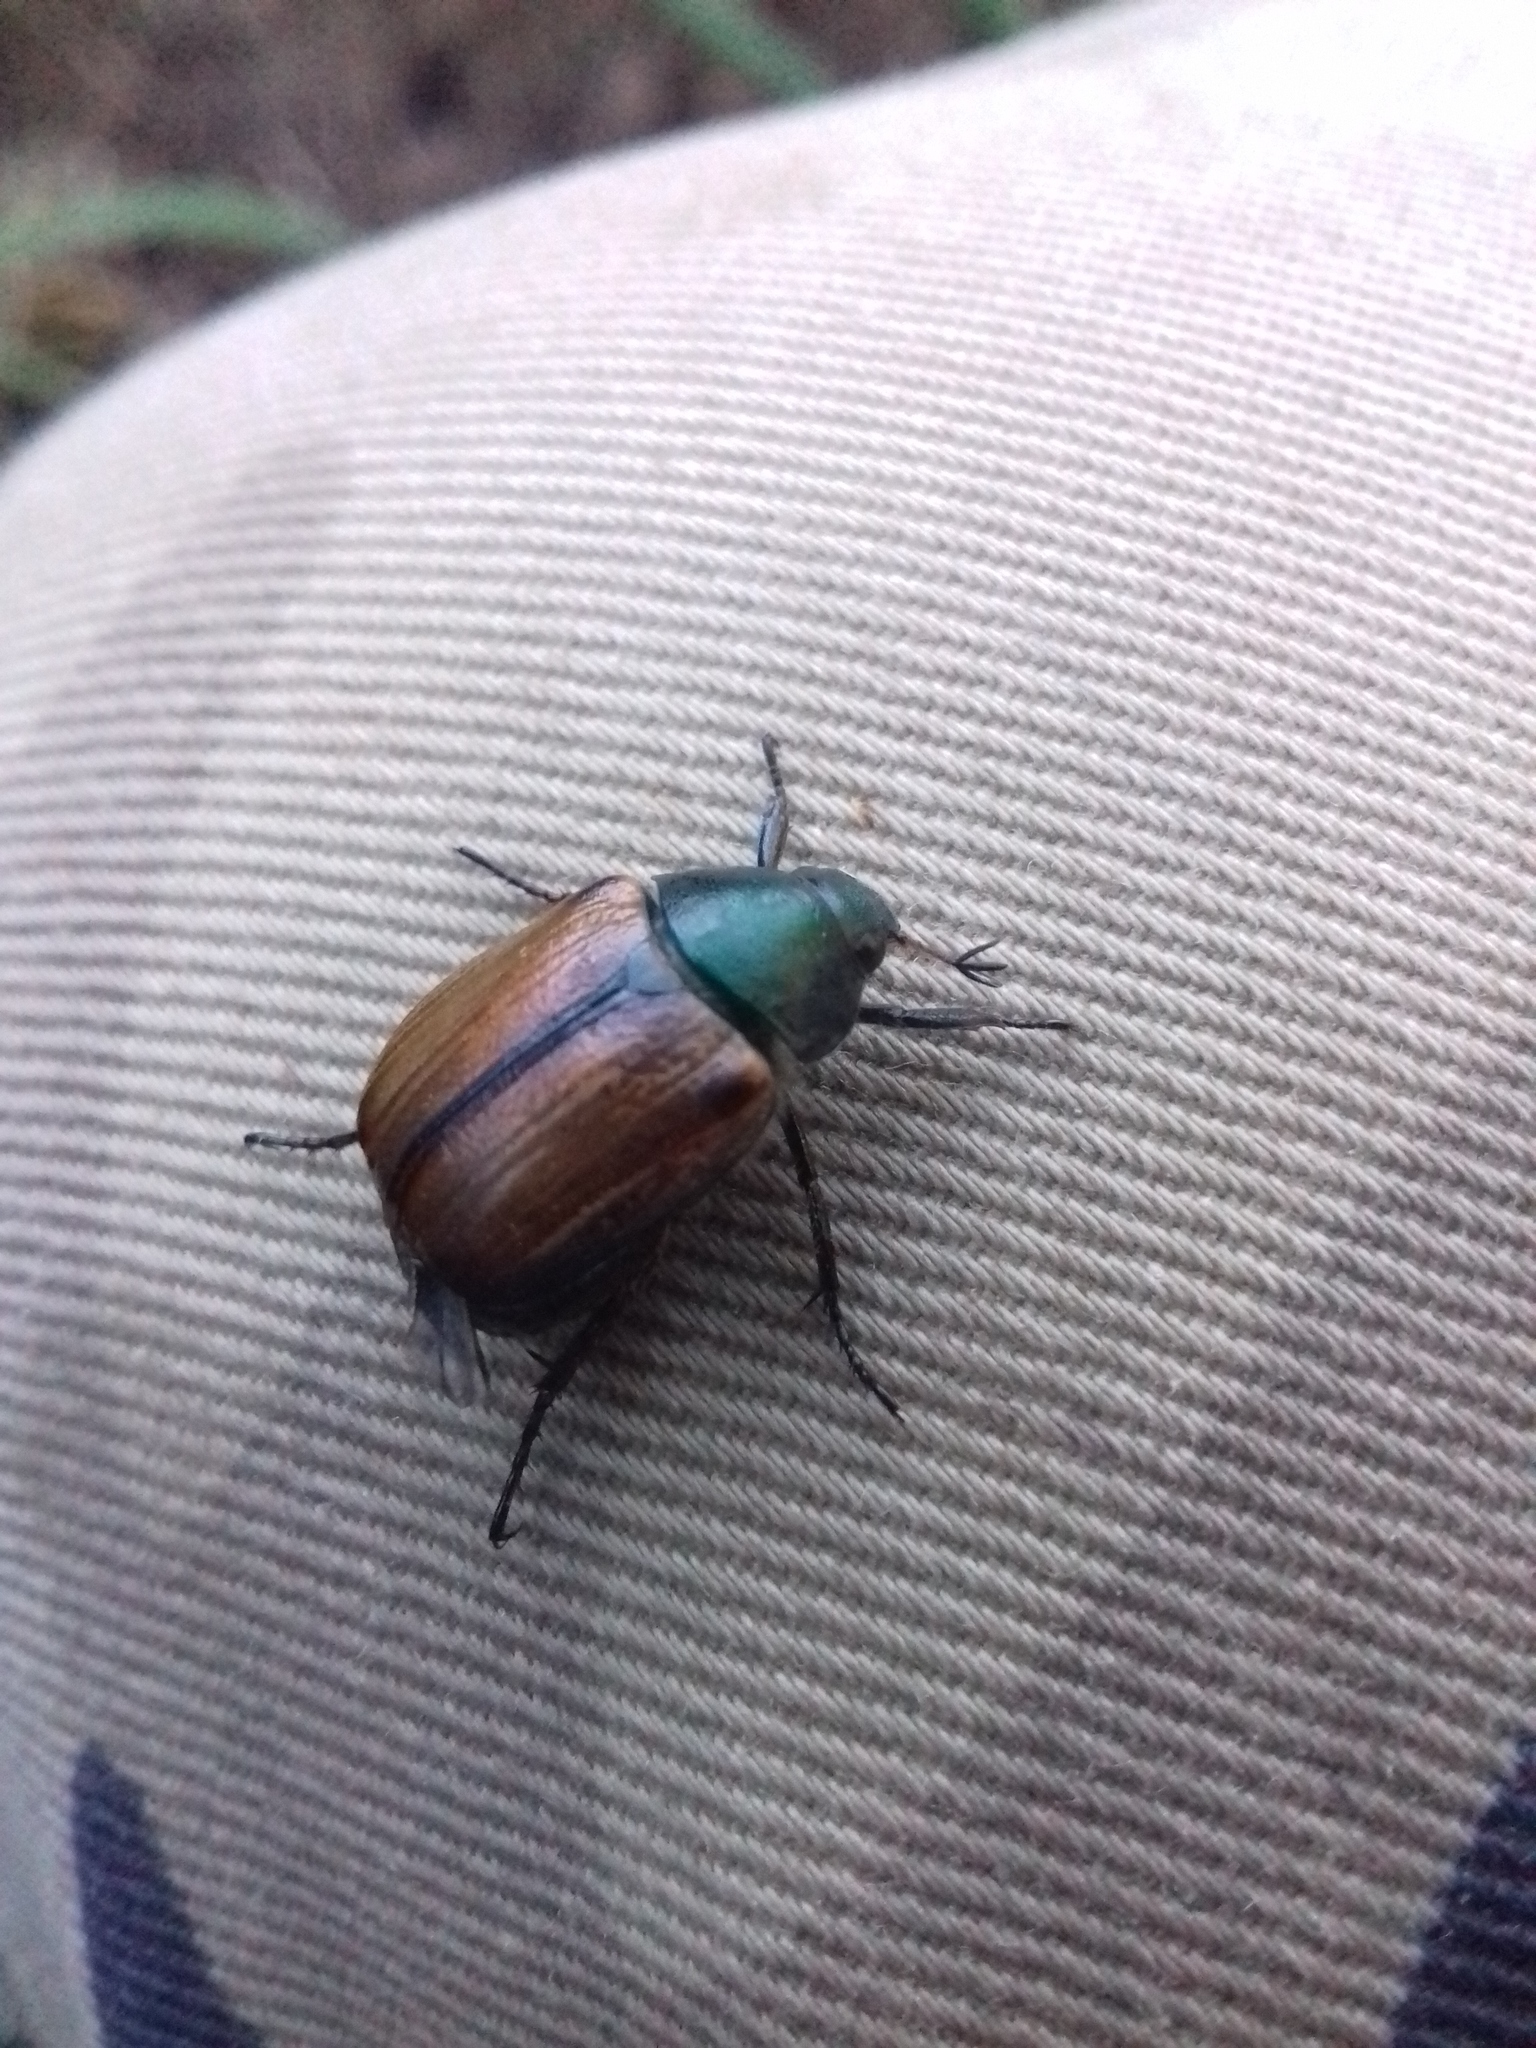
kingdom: Animalia
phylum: Arthropoda
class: Insecta
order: Coleoptera
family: Scarabaeidae
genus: Anomala
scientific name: Anomala dubia
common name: Dune chafer
